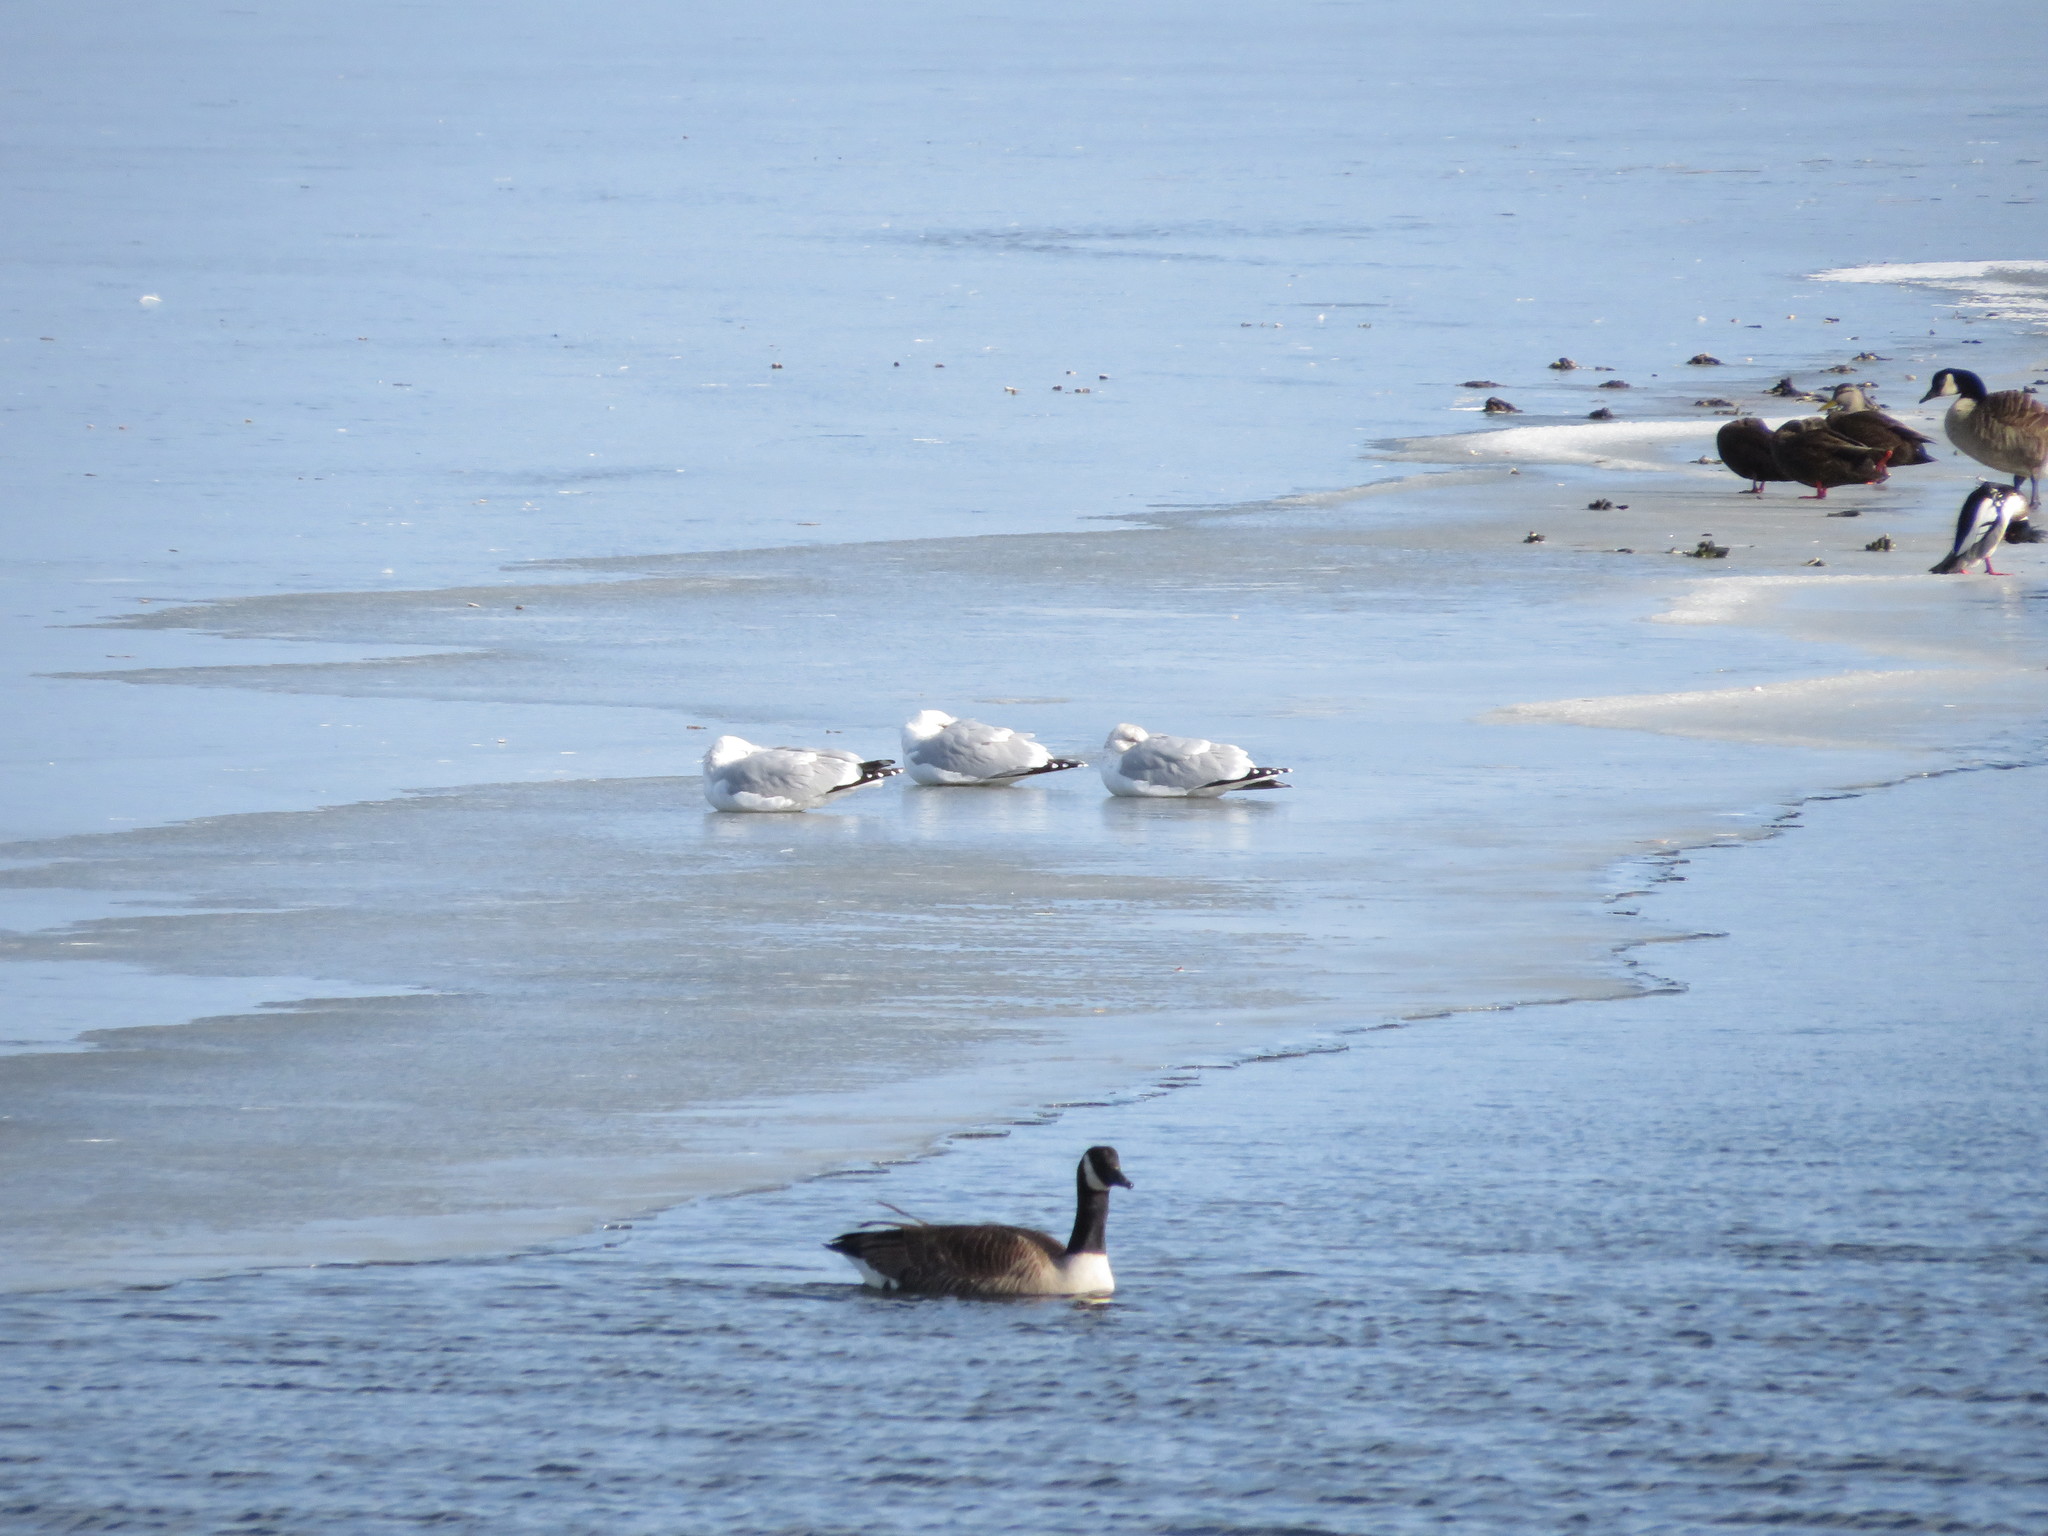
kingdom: Animalia
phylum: Chordata
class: Aves
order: Charadriiformes
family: Laridae
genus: Larus
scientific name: Larus argentatus
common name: Herring gull
